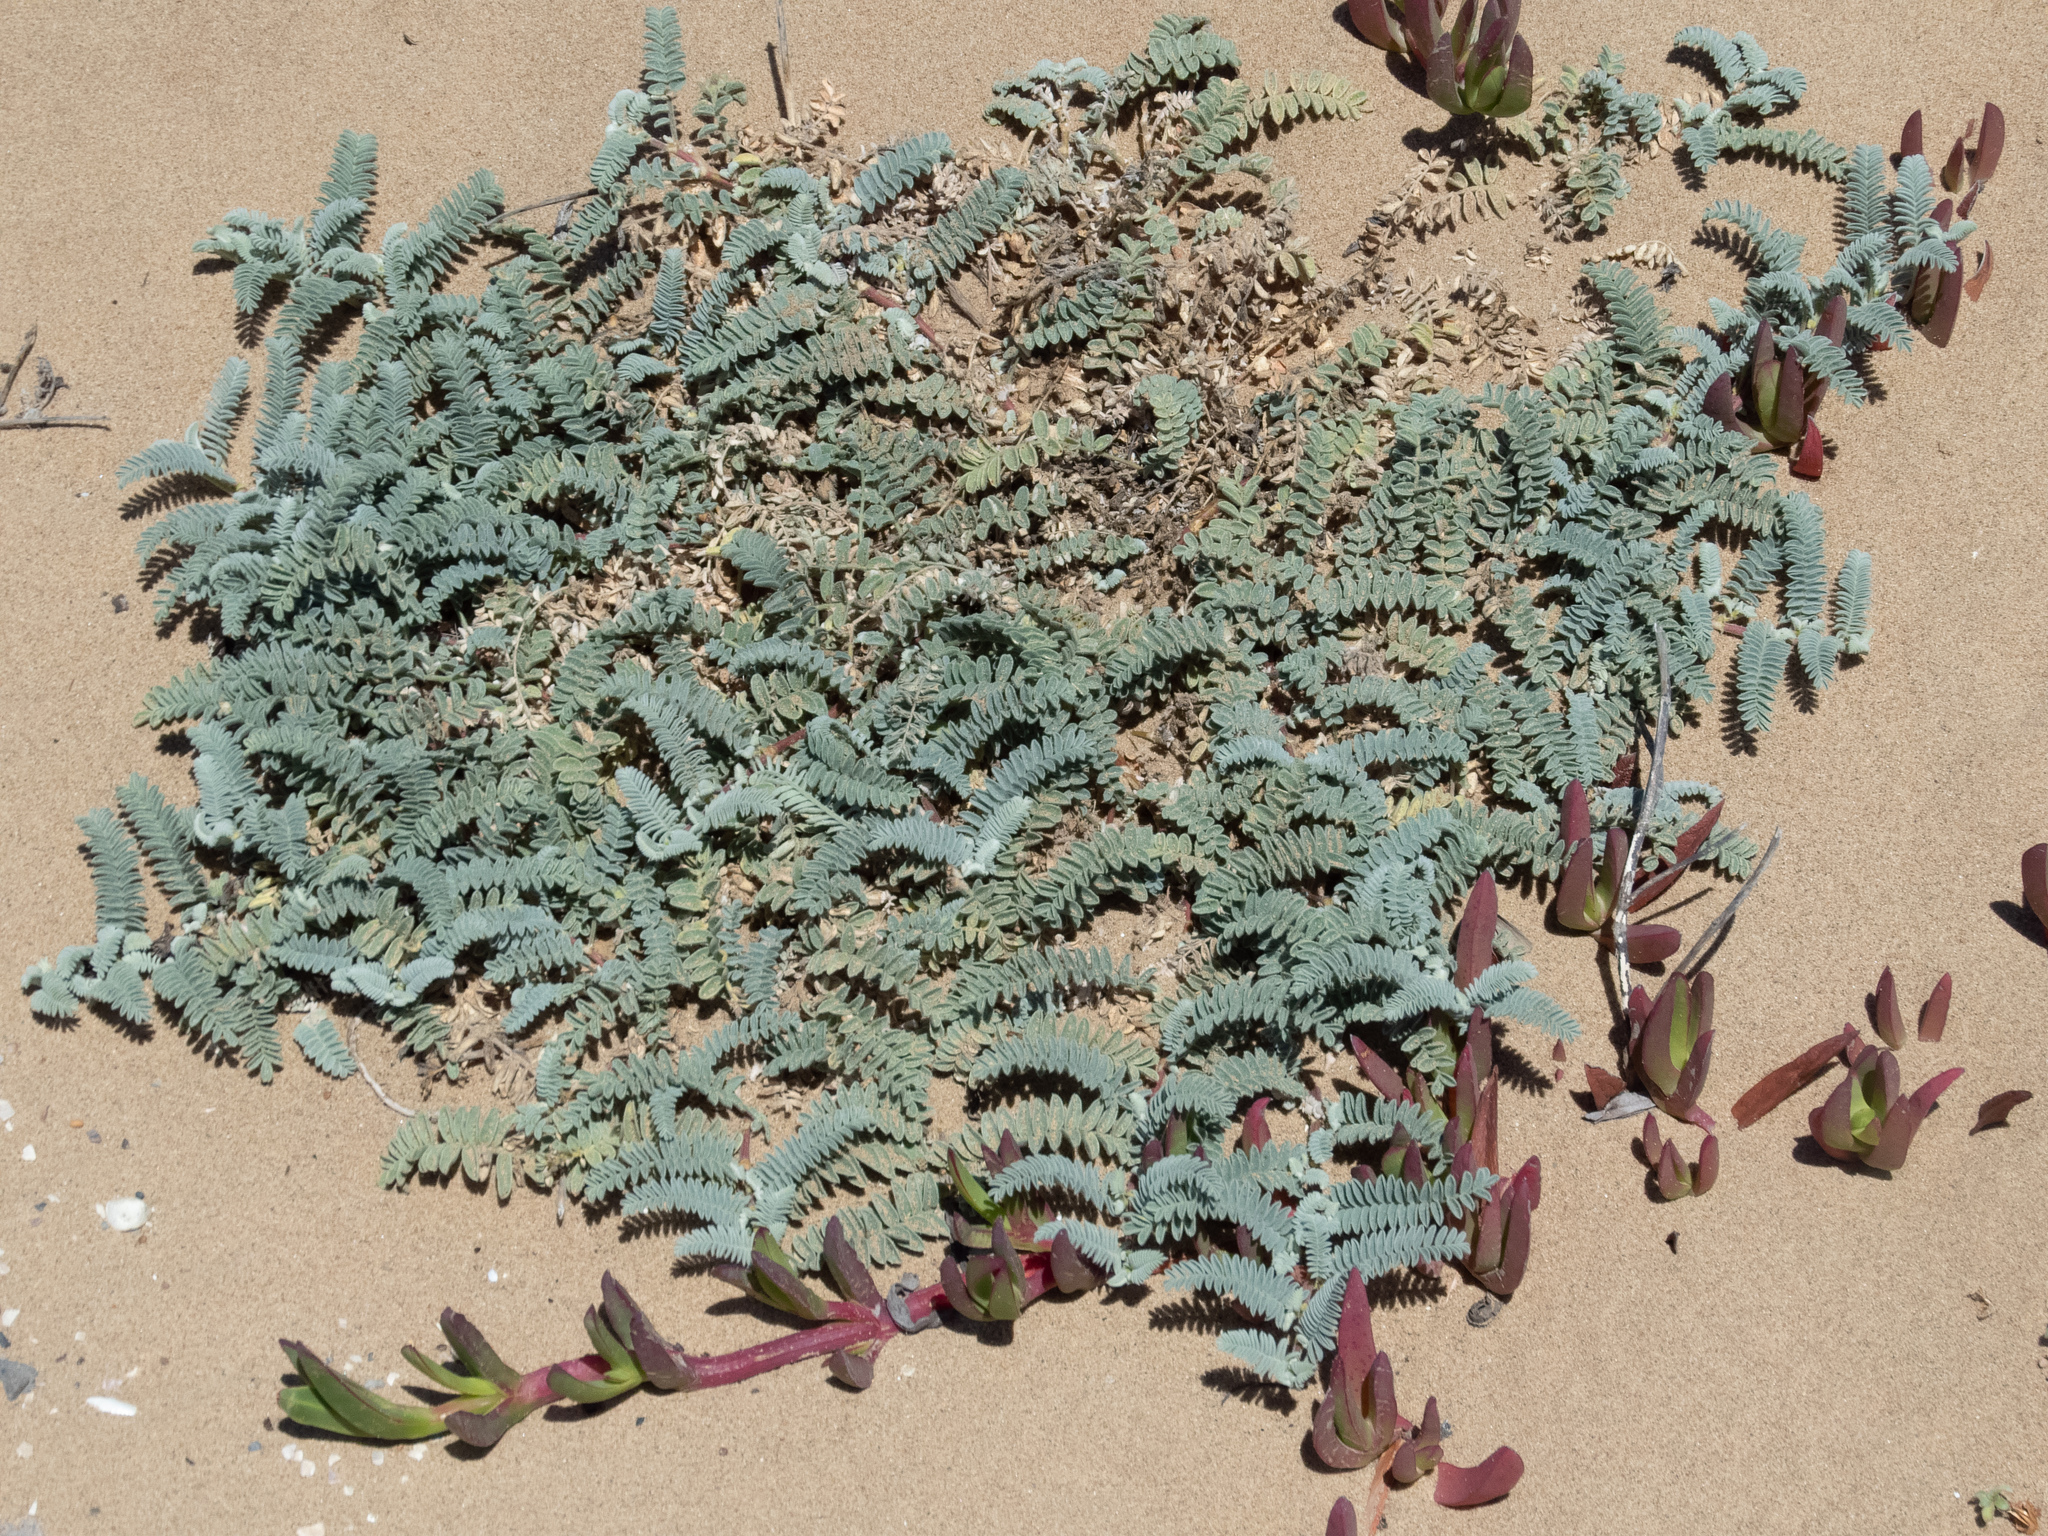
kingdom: Plantae
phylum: Tracheophyta
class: Magnoliopsida
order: Fabales
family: Fabaceae
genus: Astragalus
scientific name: Astragalus nuttallii
